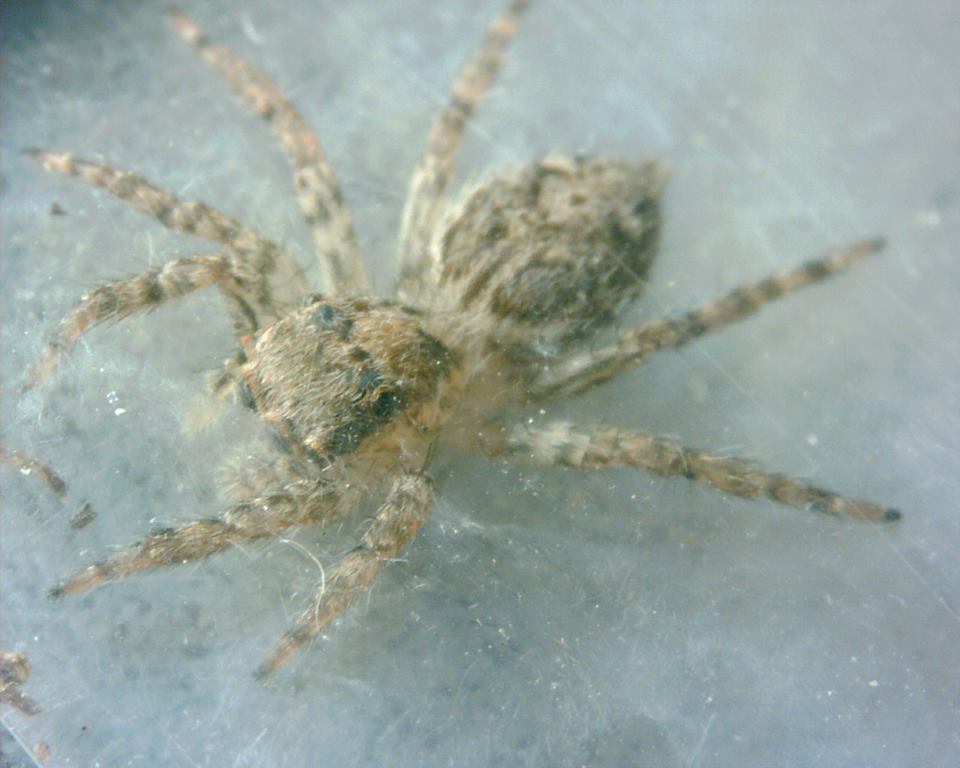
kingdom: Animalia
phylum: Arthropoda
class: Arachnida
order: Araneae
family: Salticidae
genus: Plexippus
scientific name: Plexippus petersi
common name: Jumping spider
